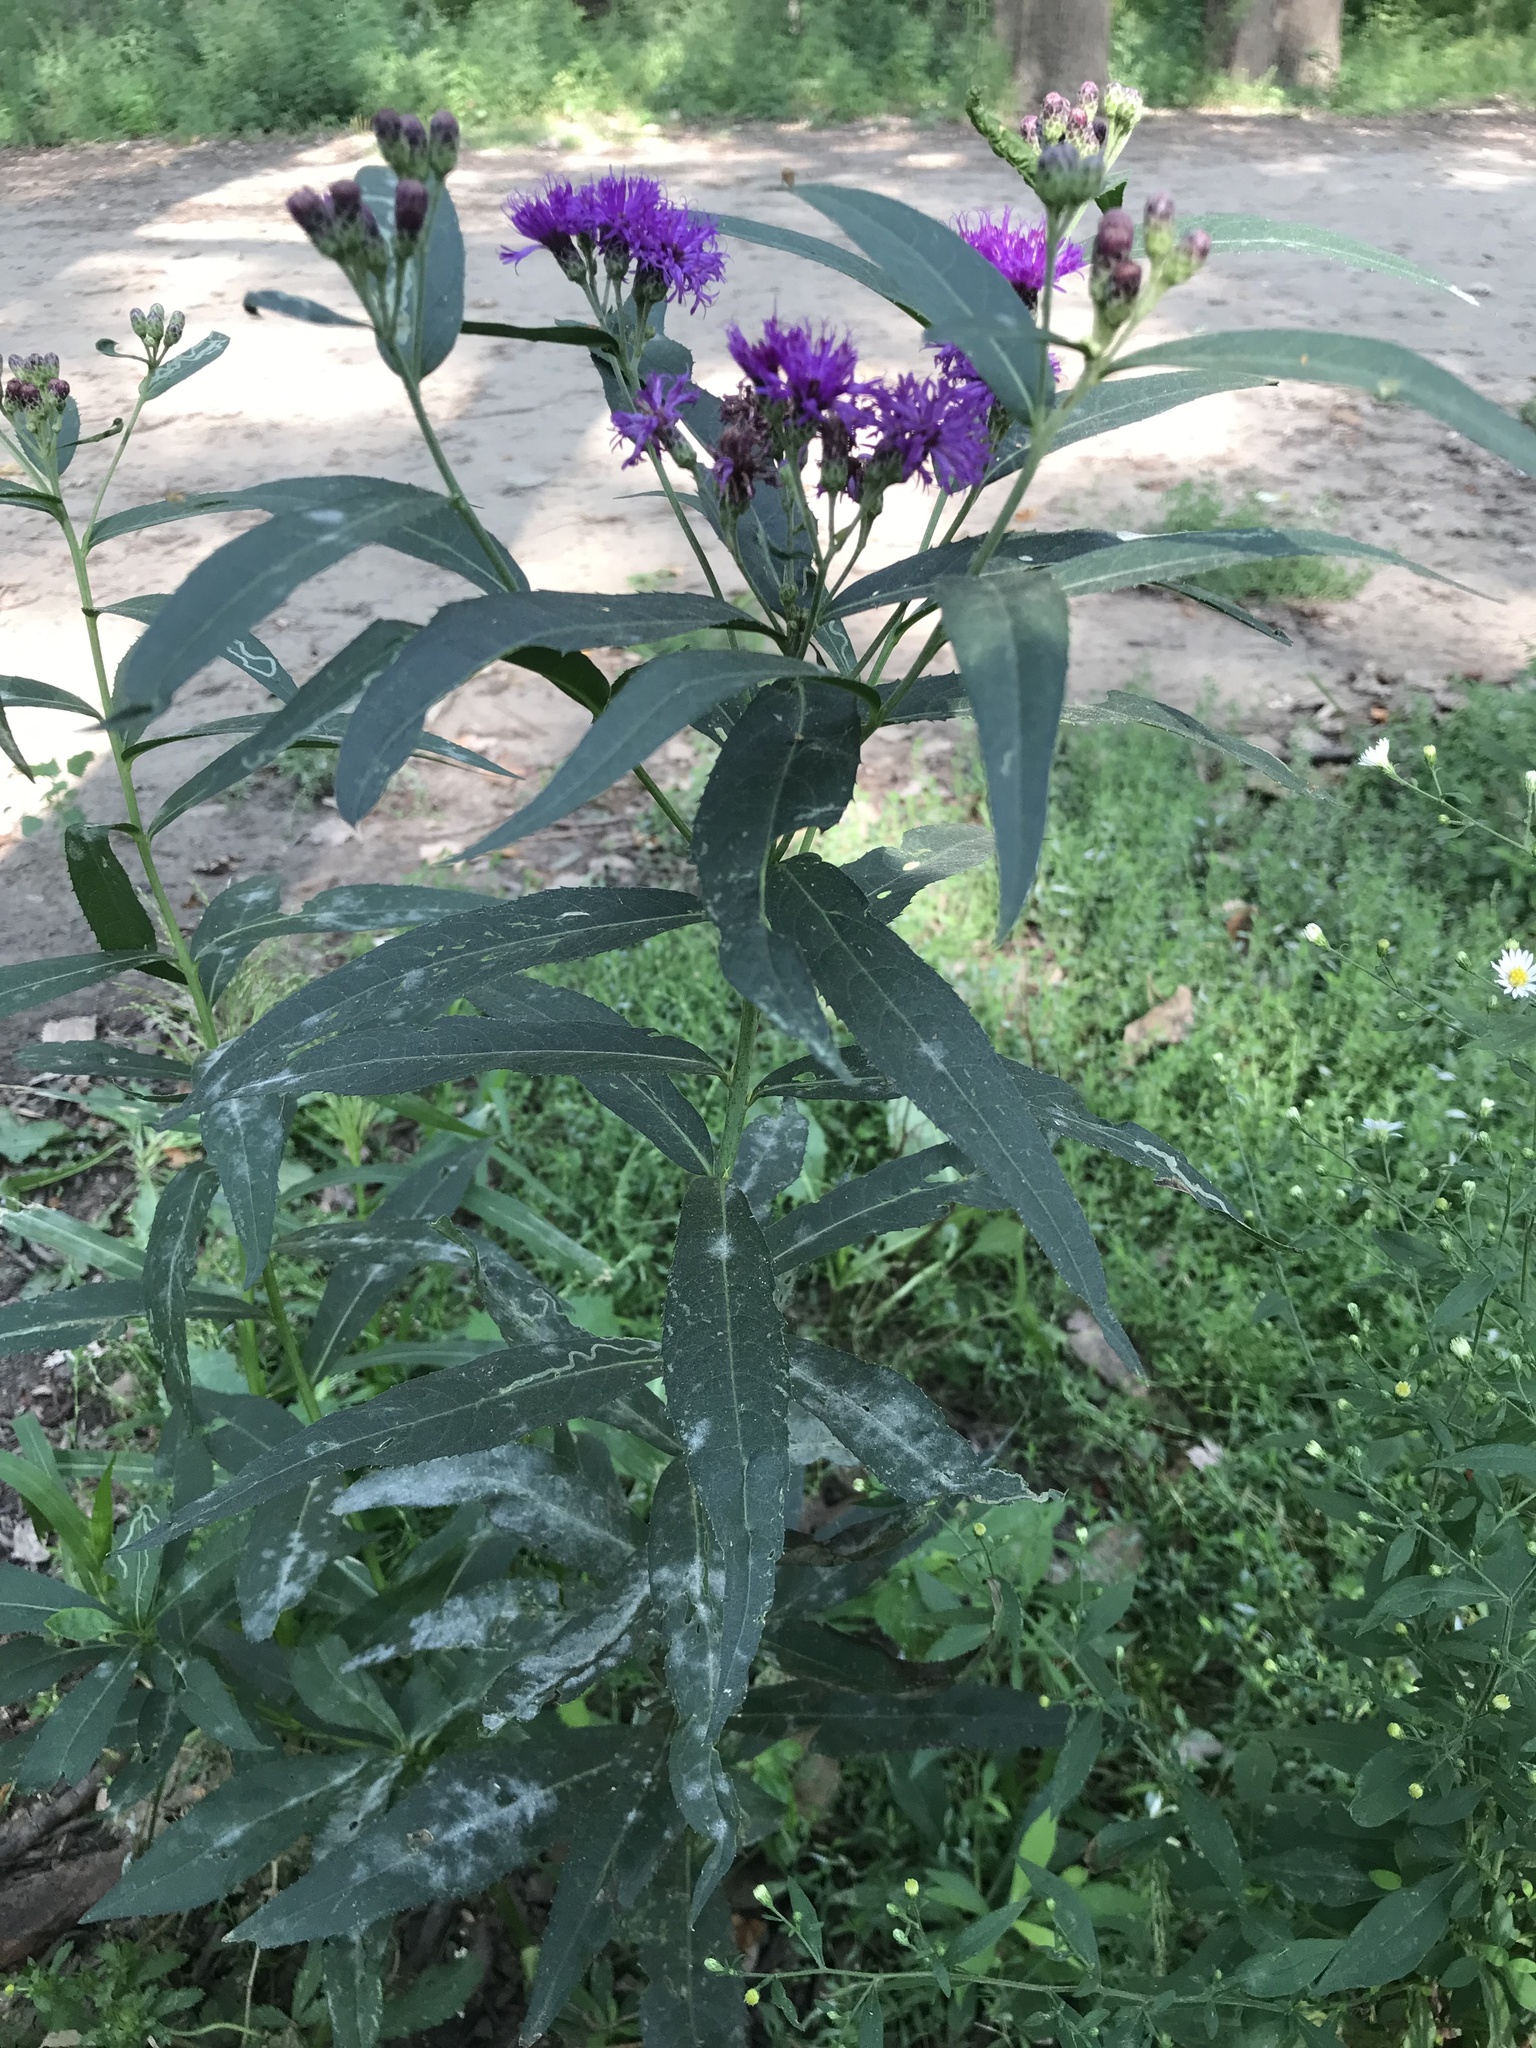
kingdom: Plantae
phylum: Tracheophyta
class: Magnoliopsida
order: Asterales
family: Asteraceae
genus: Vernonia
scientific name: Vernonia fasciculata
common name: Fascicled ironweed
